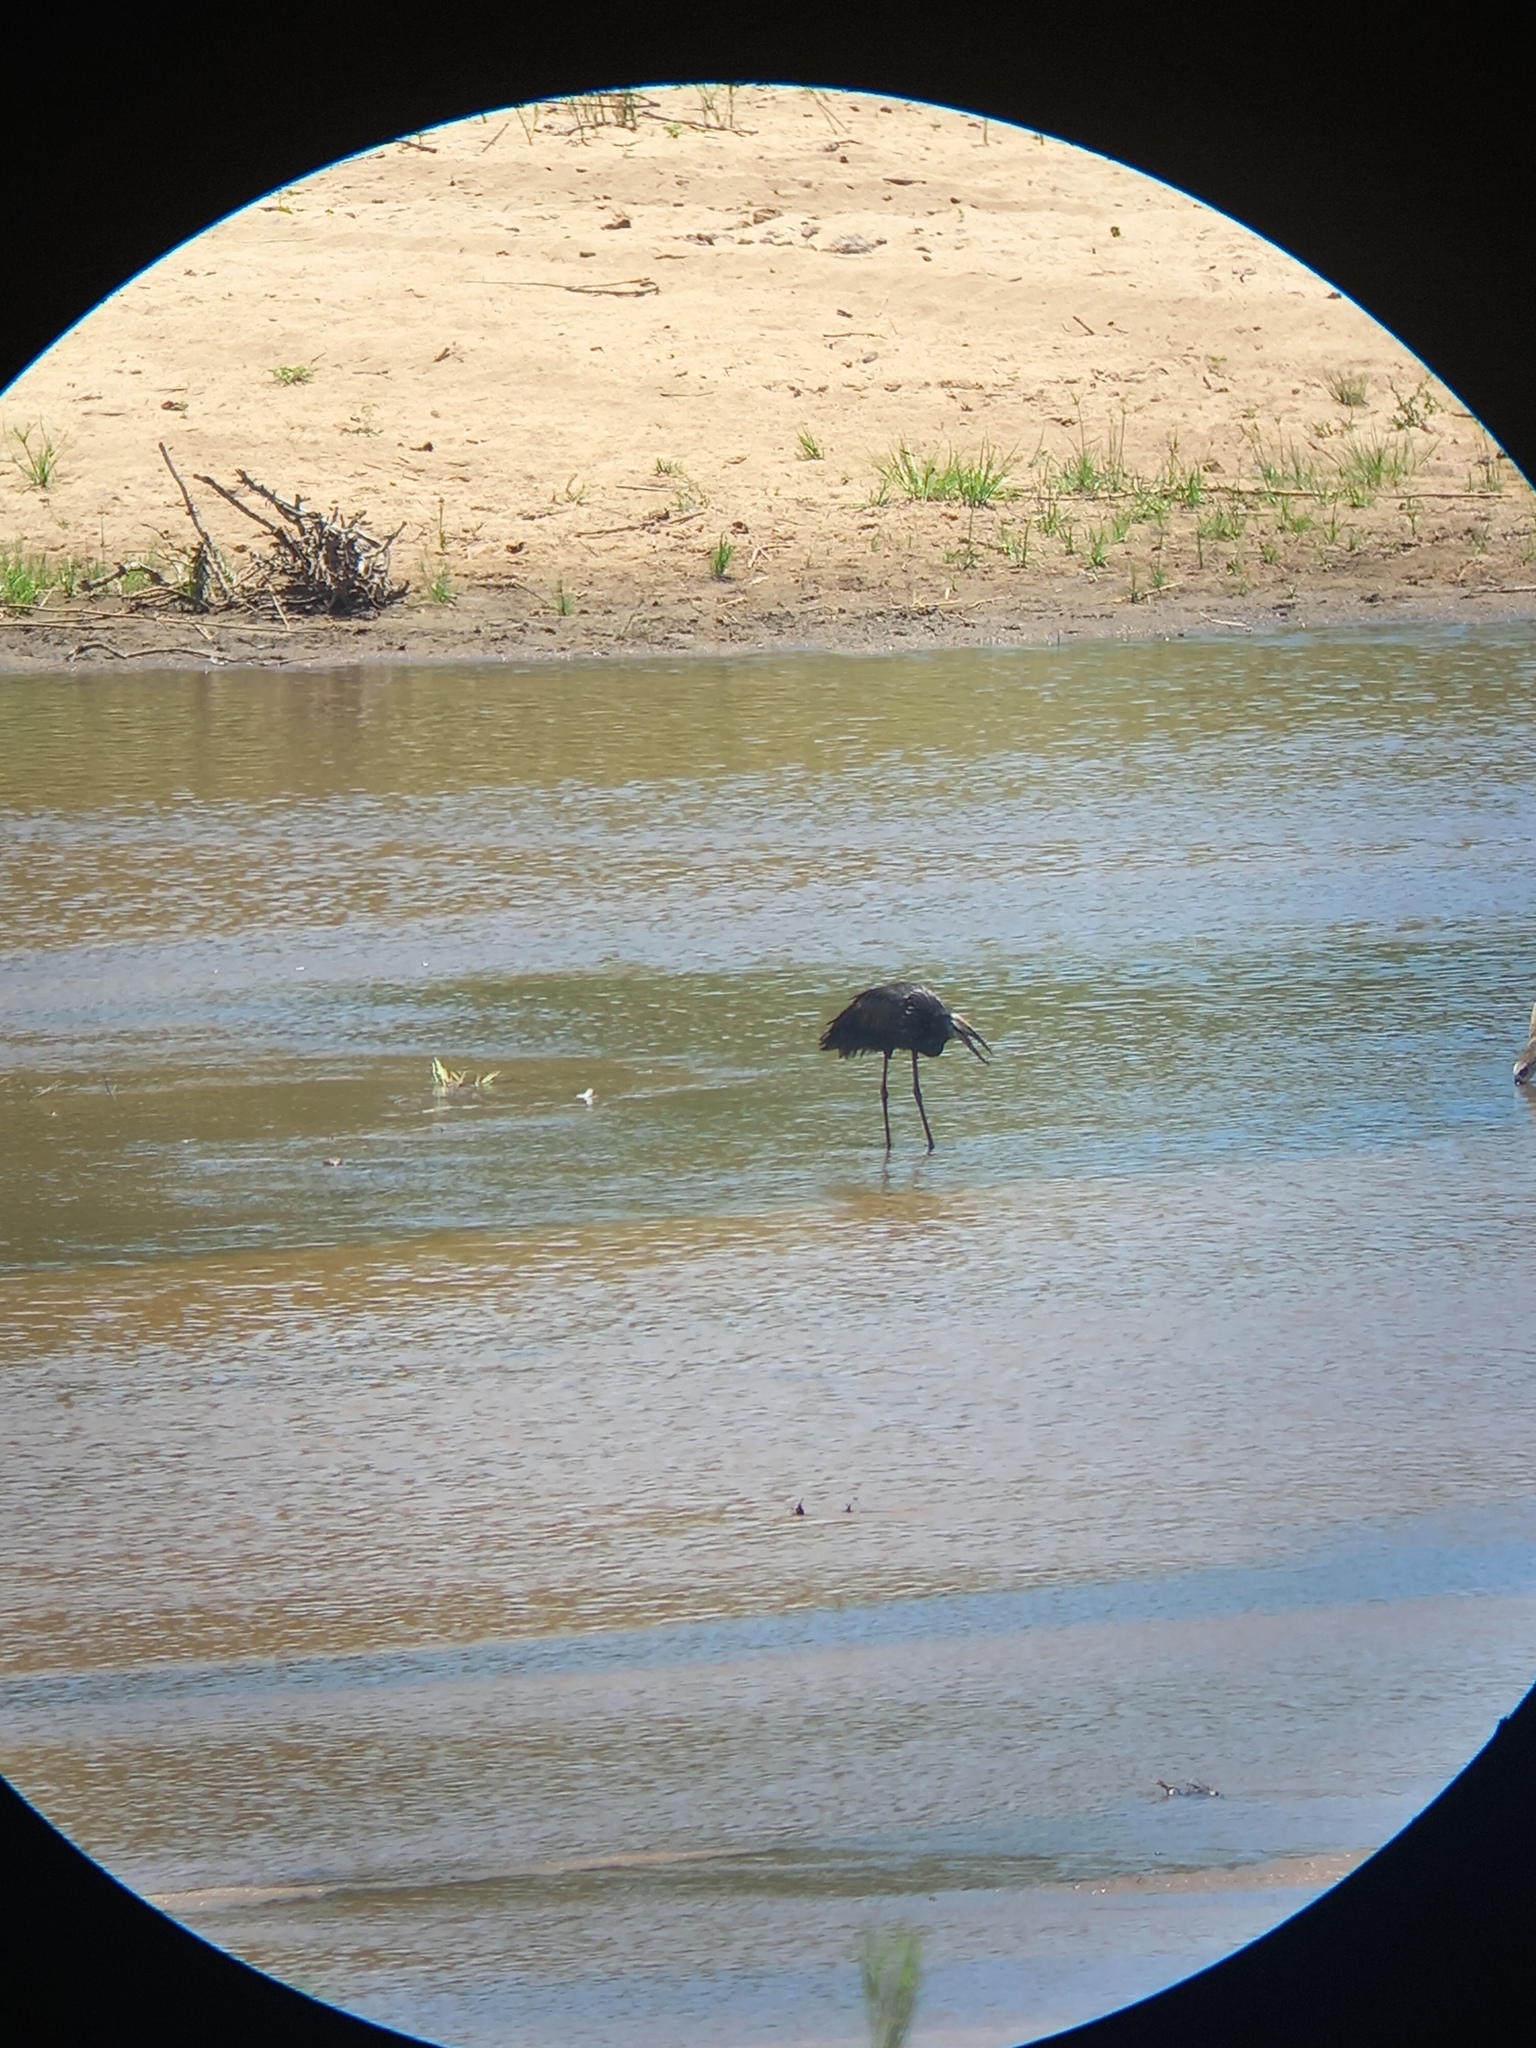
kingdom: Animalia
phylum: Chordata
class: Aves
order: Ciconiiformes
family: Ciconiidae
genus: Anastomus
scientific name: Anastomus lamelligerus
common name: African openbill
